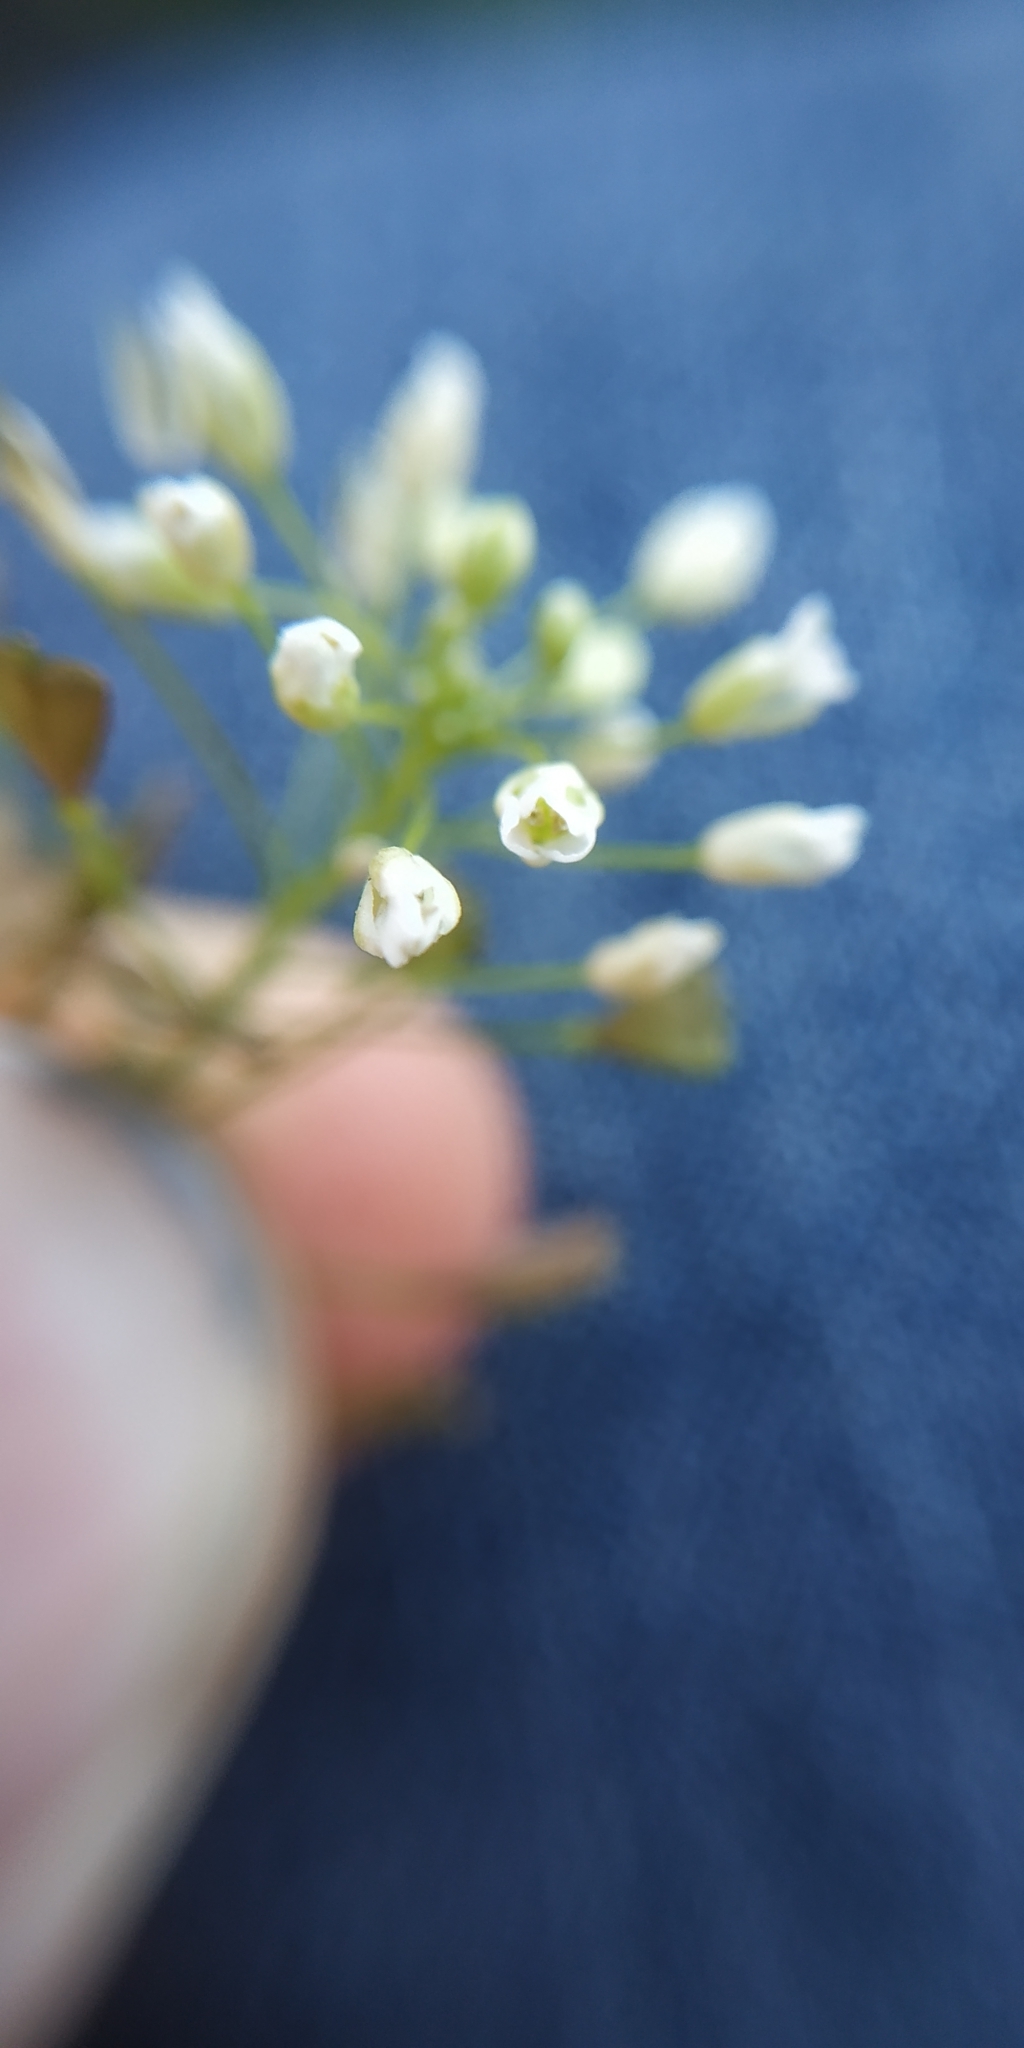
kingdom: Plantae
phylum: Tracheophyta
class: Magnoliopsida
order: Brassicales
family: Brassicaceae
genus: Capsella
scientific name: Capsella bursa-pastoris
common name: Shepherd's purse
